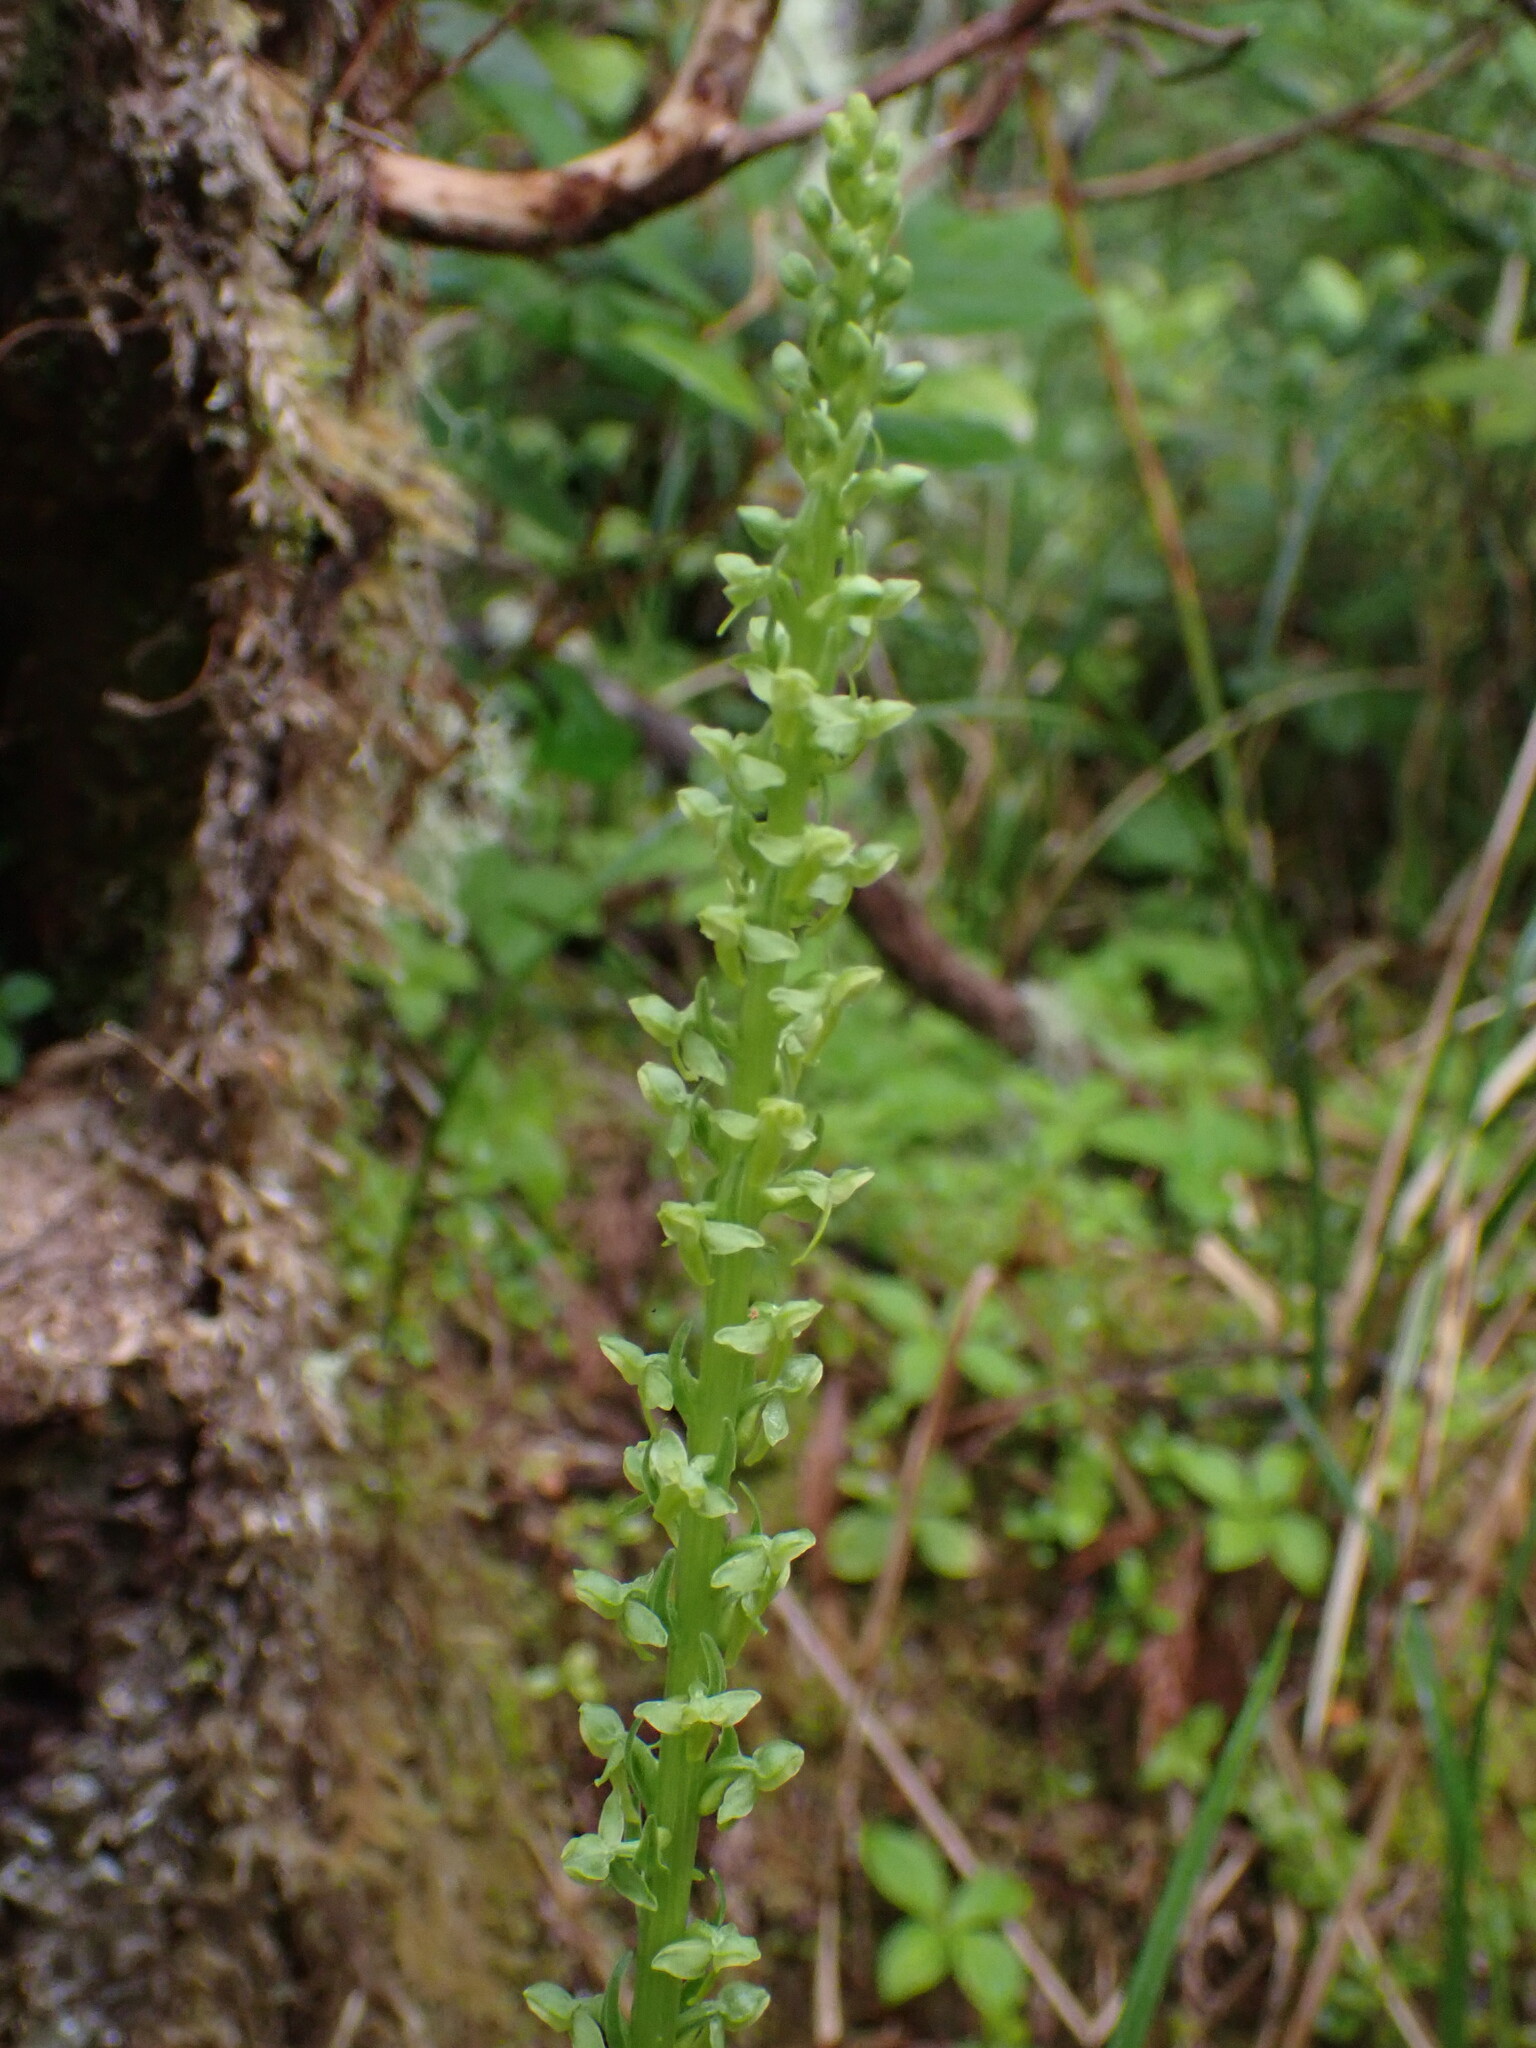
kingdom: Plantae
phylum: Tracheophyta
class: Liliopsida
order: Asparagales
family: Orchidaceae
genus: Platanthera
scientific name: Platanthera stricta
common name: Slender bog orchid
